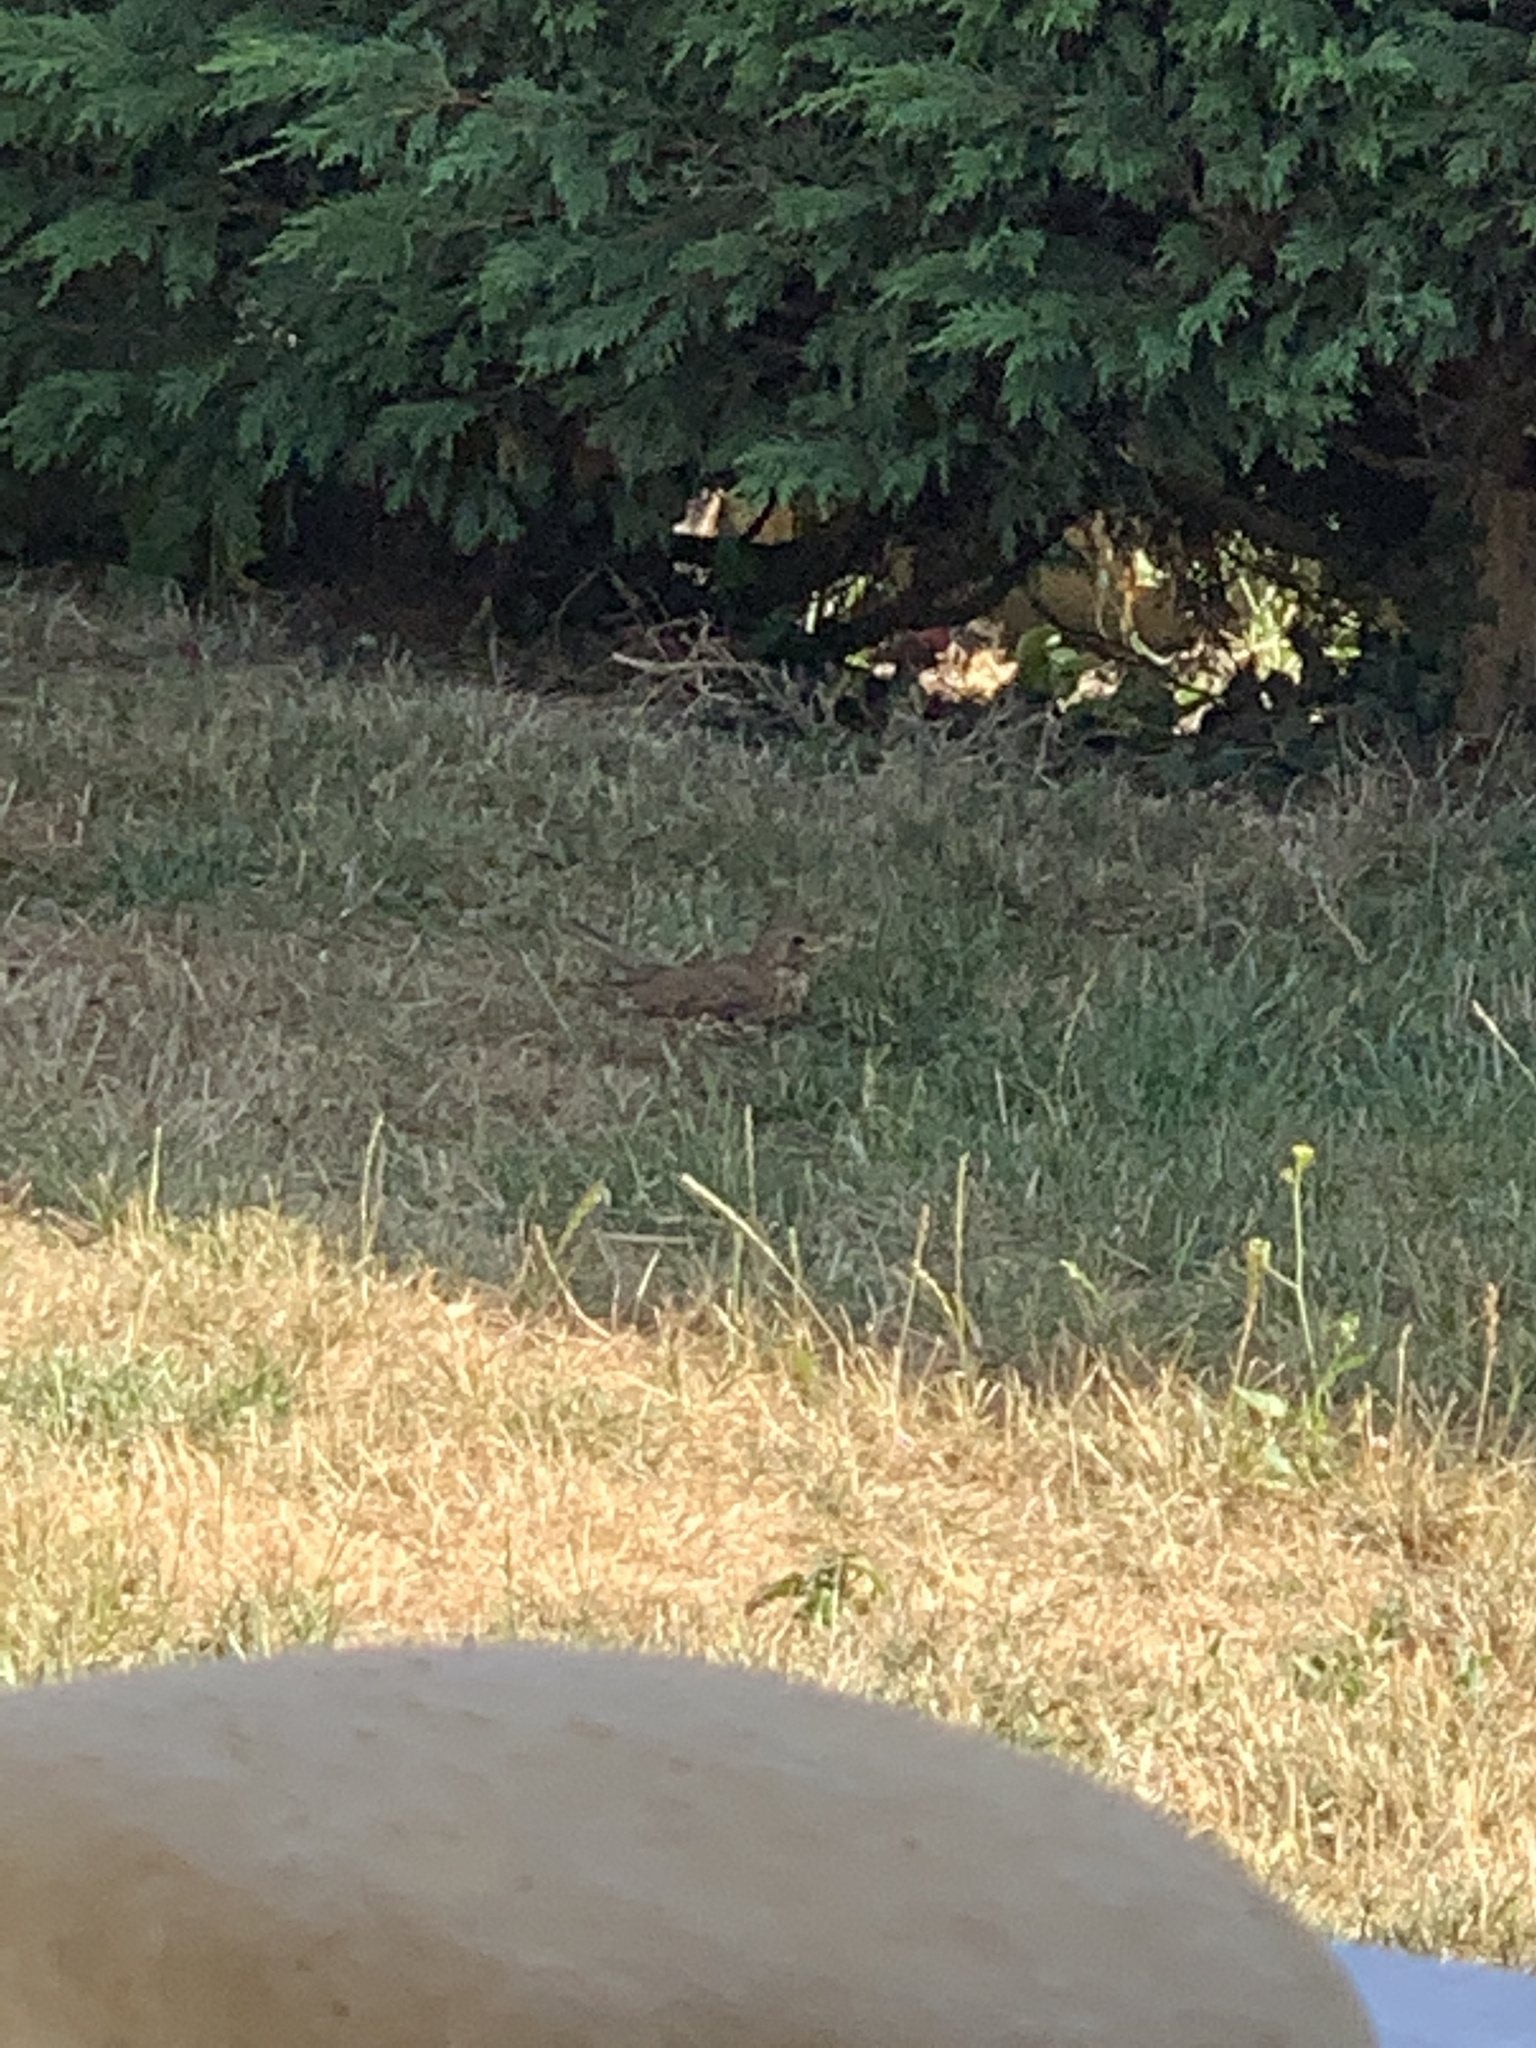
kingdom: Animalia
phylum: Chordata
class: Aves
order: Passeriformes
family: Turdidae
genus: Turdus
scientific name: Turdus philomelos
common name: Song thrush
